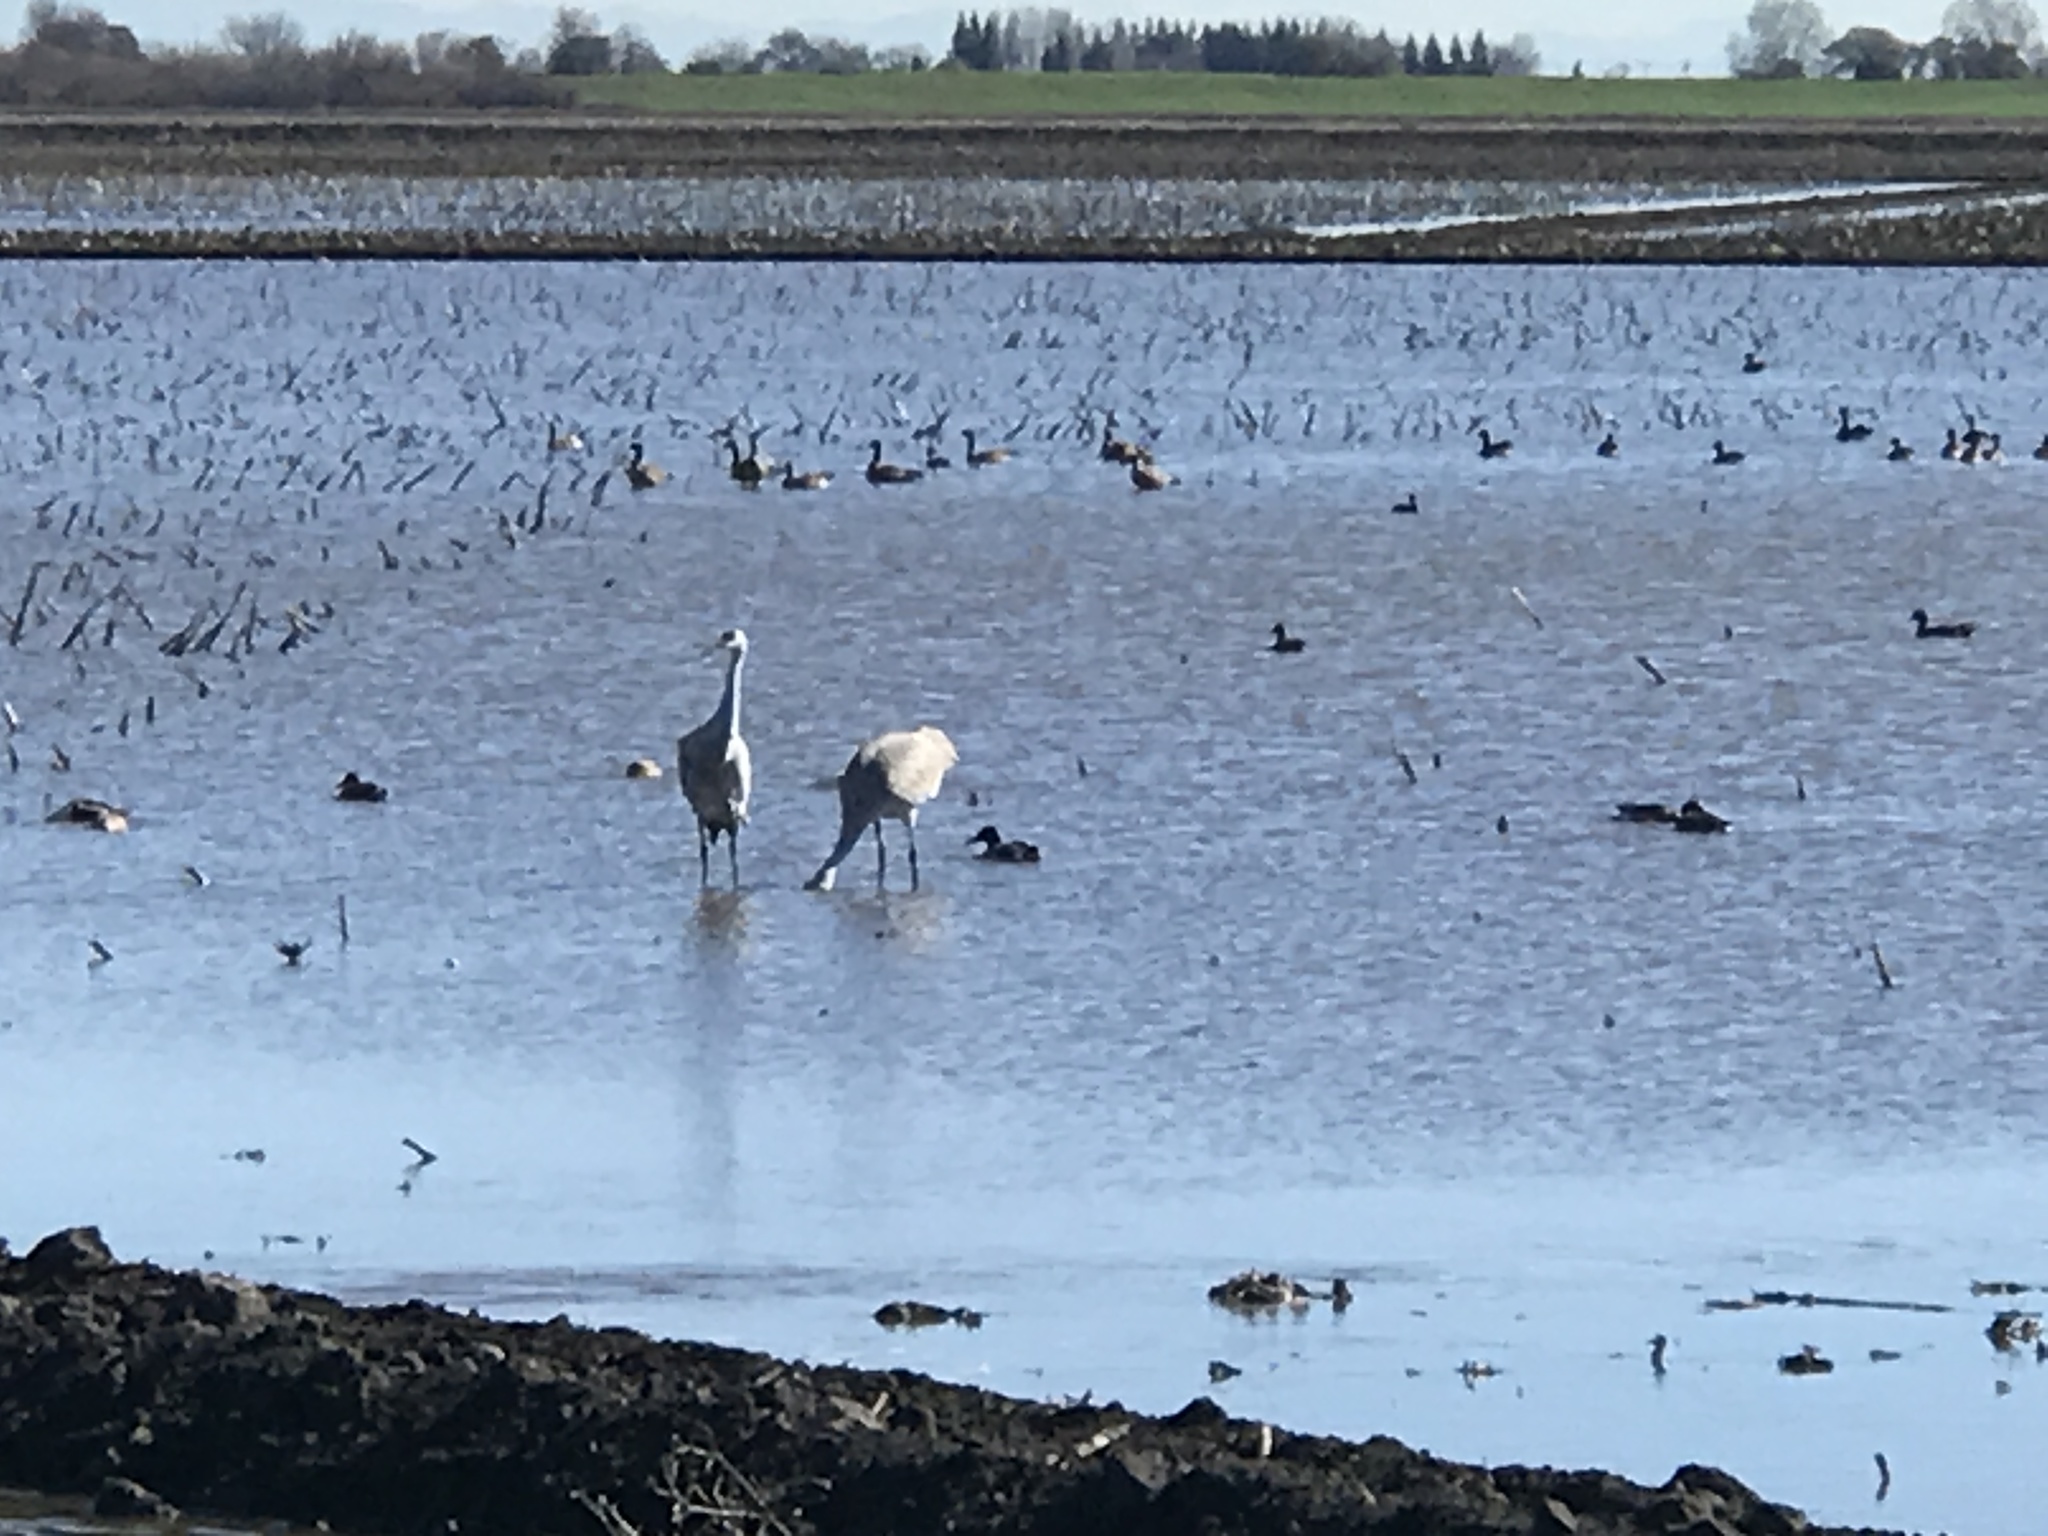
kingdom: Animalia
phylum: Chordata
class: Aves
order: Gruiformes
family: Gruidae
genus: Grus
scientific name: Grus canadensis
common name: Sandhill crane
